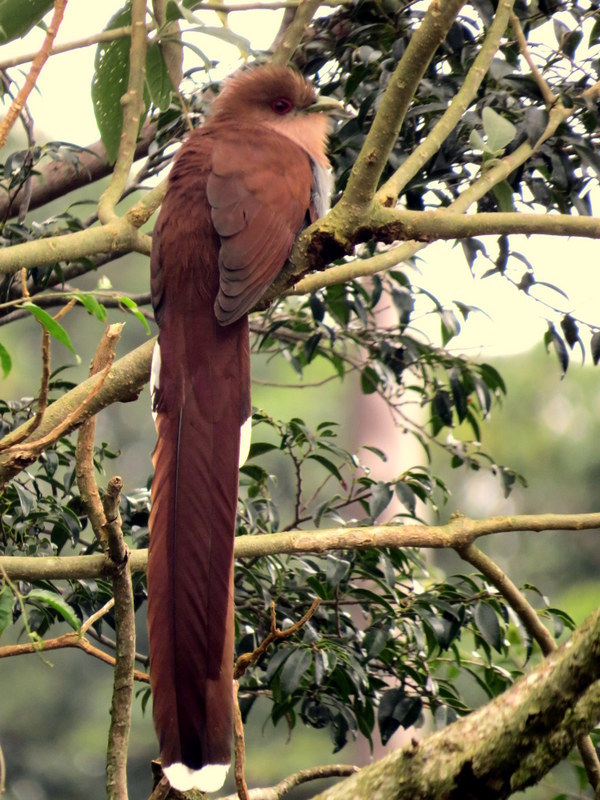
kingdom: Animalia
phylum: Chordata
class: Aves
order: Cuculiformes
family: Cuculidae
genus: Piaya
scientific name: Piaya cayana
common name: Squirrel cuckoo
